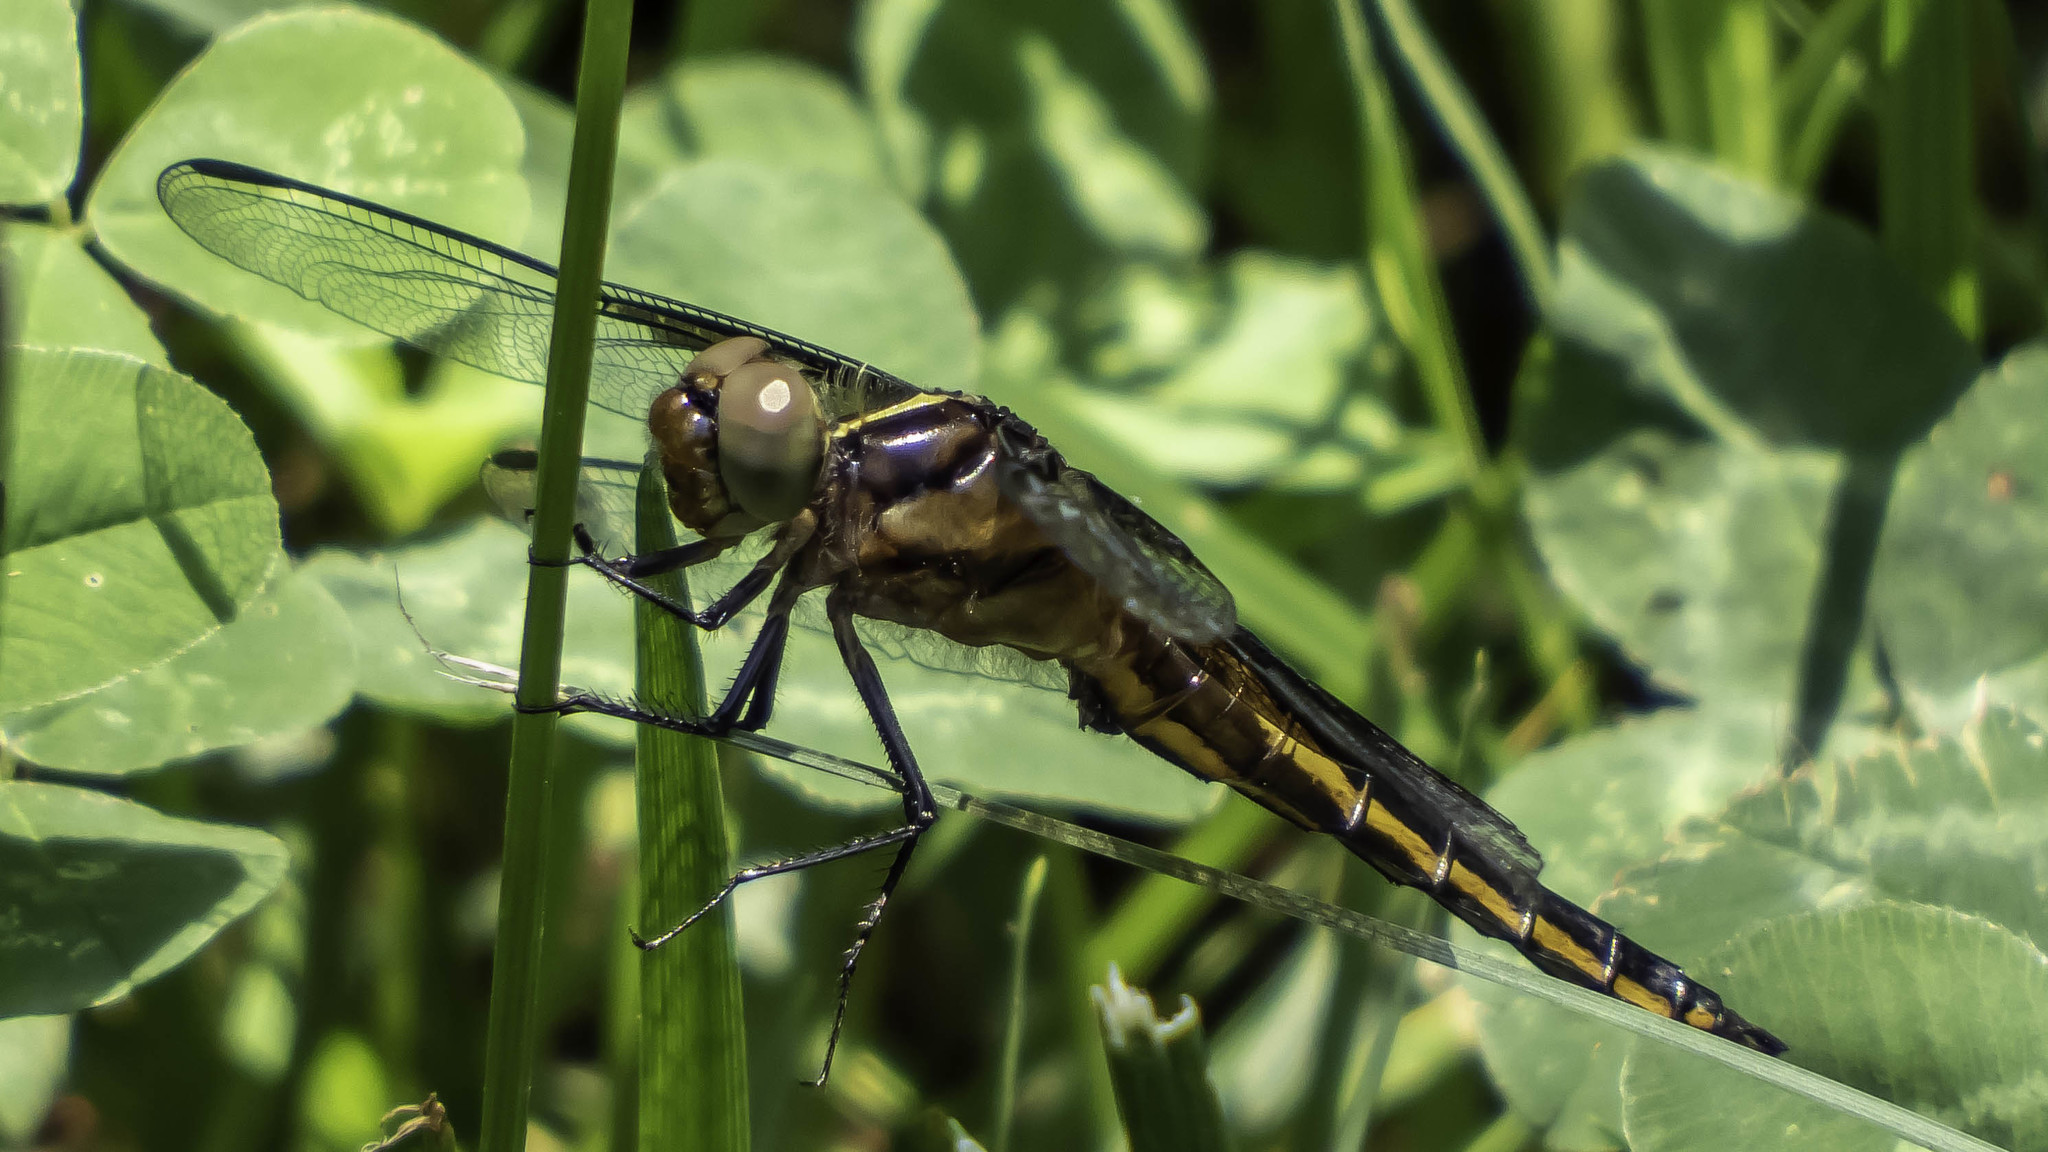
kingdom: Animalia
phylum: Arthropoda
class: Insecta
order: Odonata
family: Libellulidae
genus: Libellula
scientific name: Libellula luctuosa
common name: Widow skimmer
